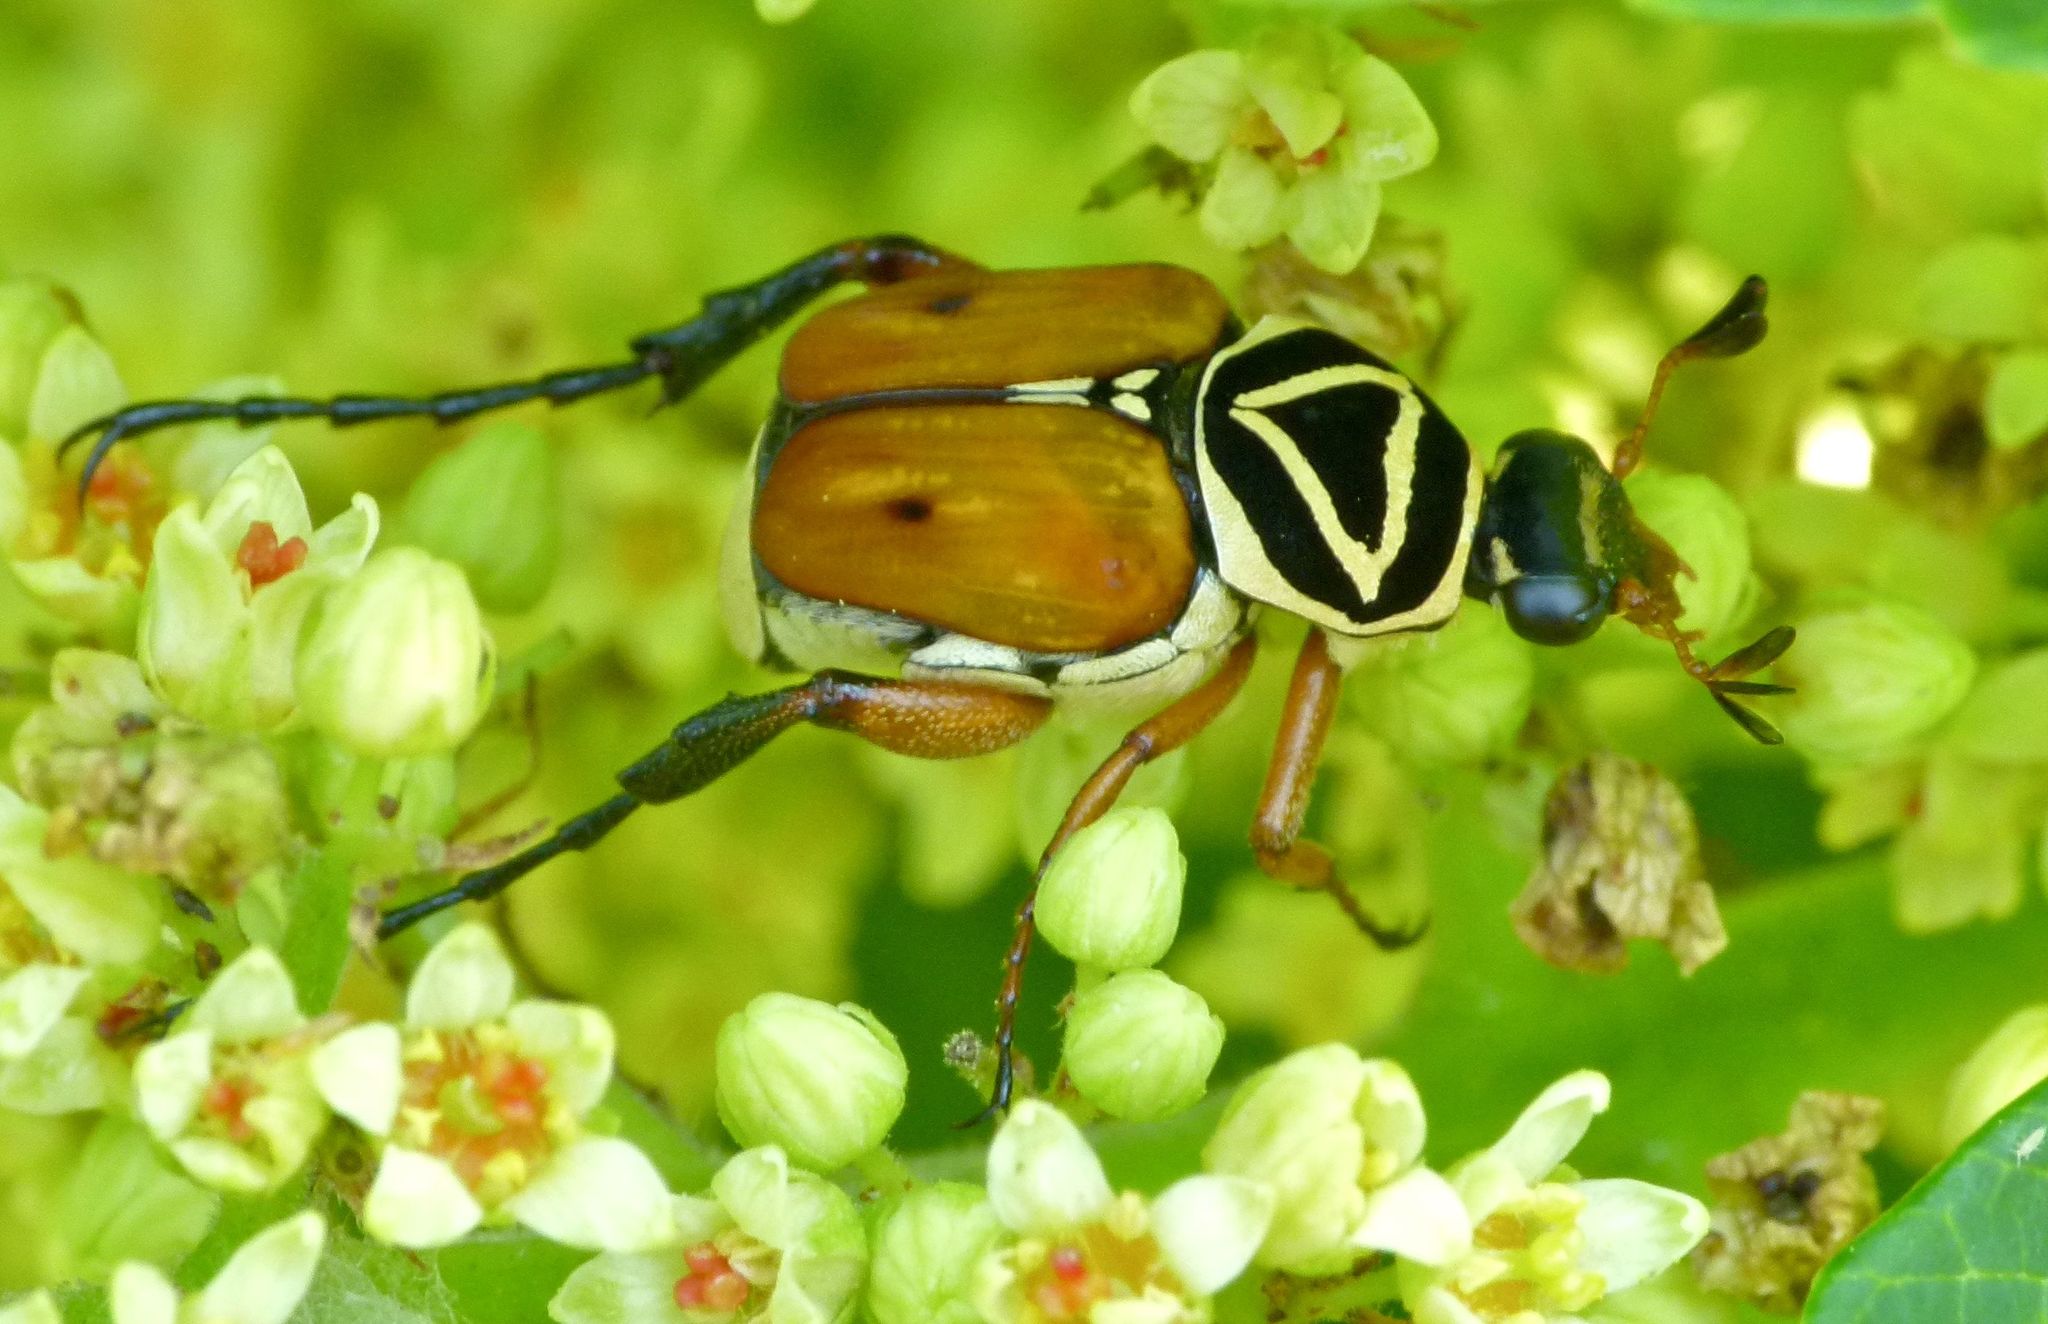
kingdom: Animalia
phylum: Arthropoda
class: Insecta
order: Coleoptera
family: Scarabaeidae
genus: Trigonopeltastes
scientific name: Trigonopeltastes delta
